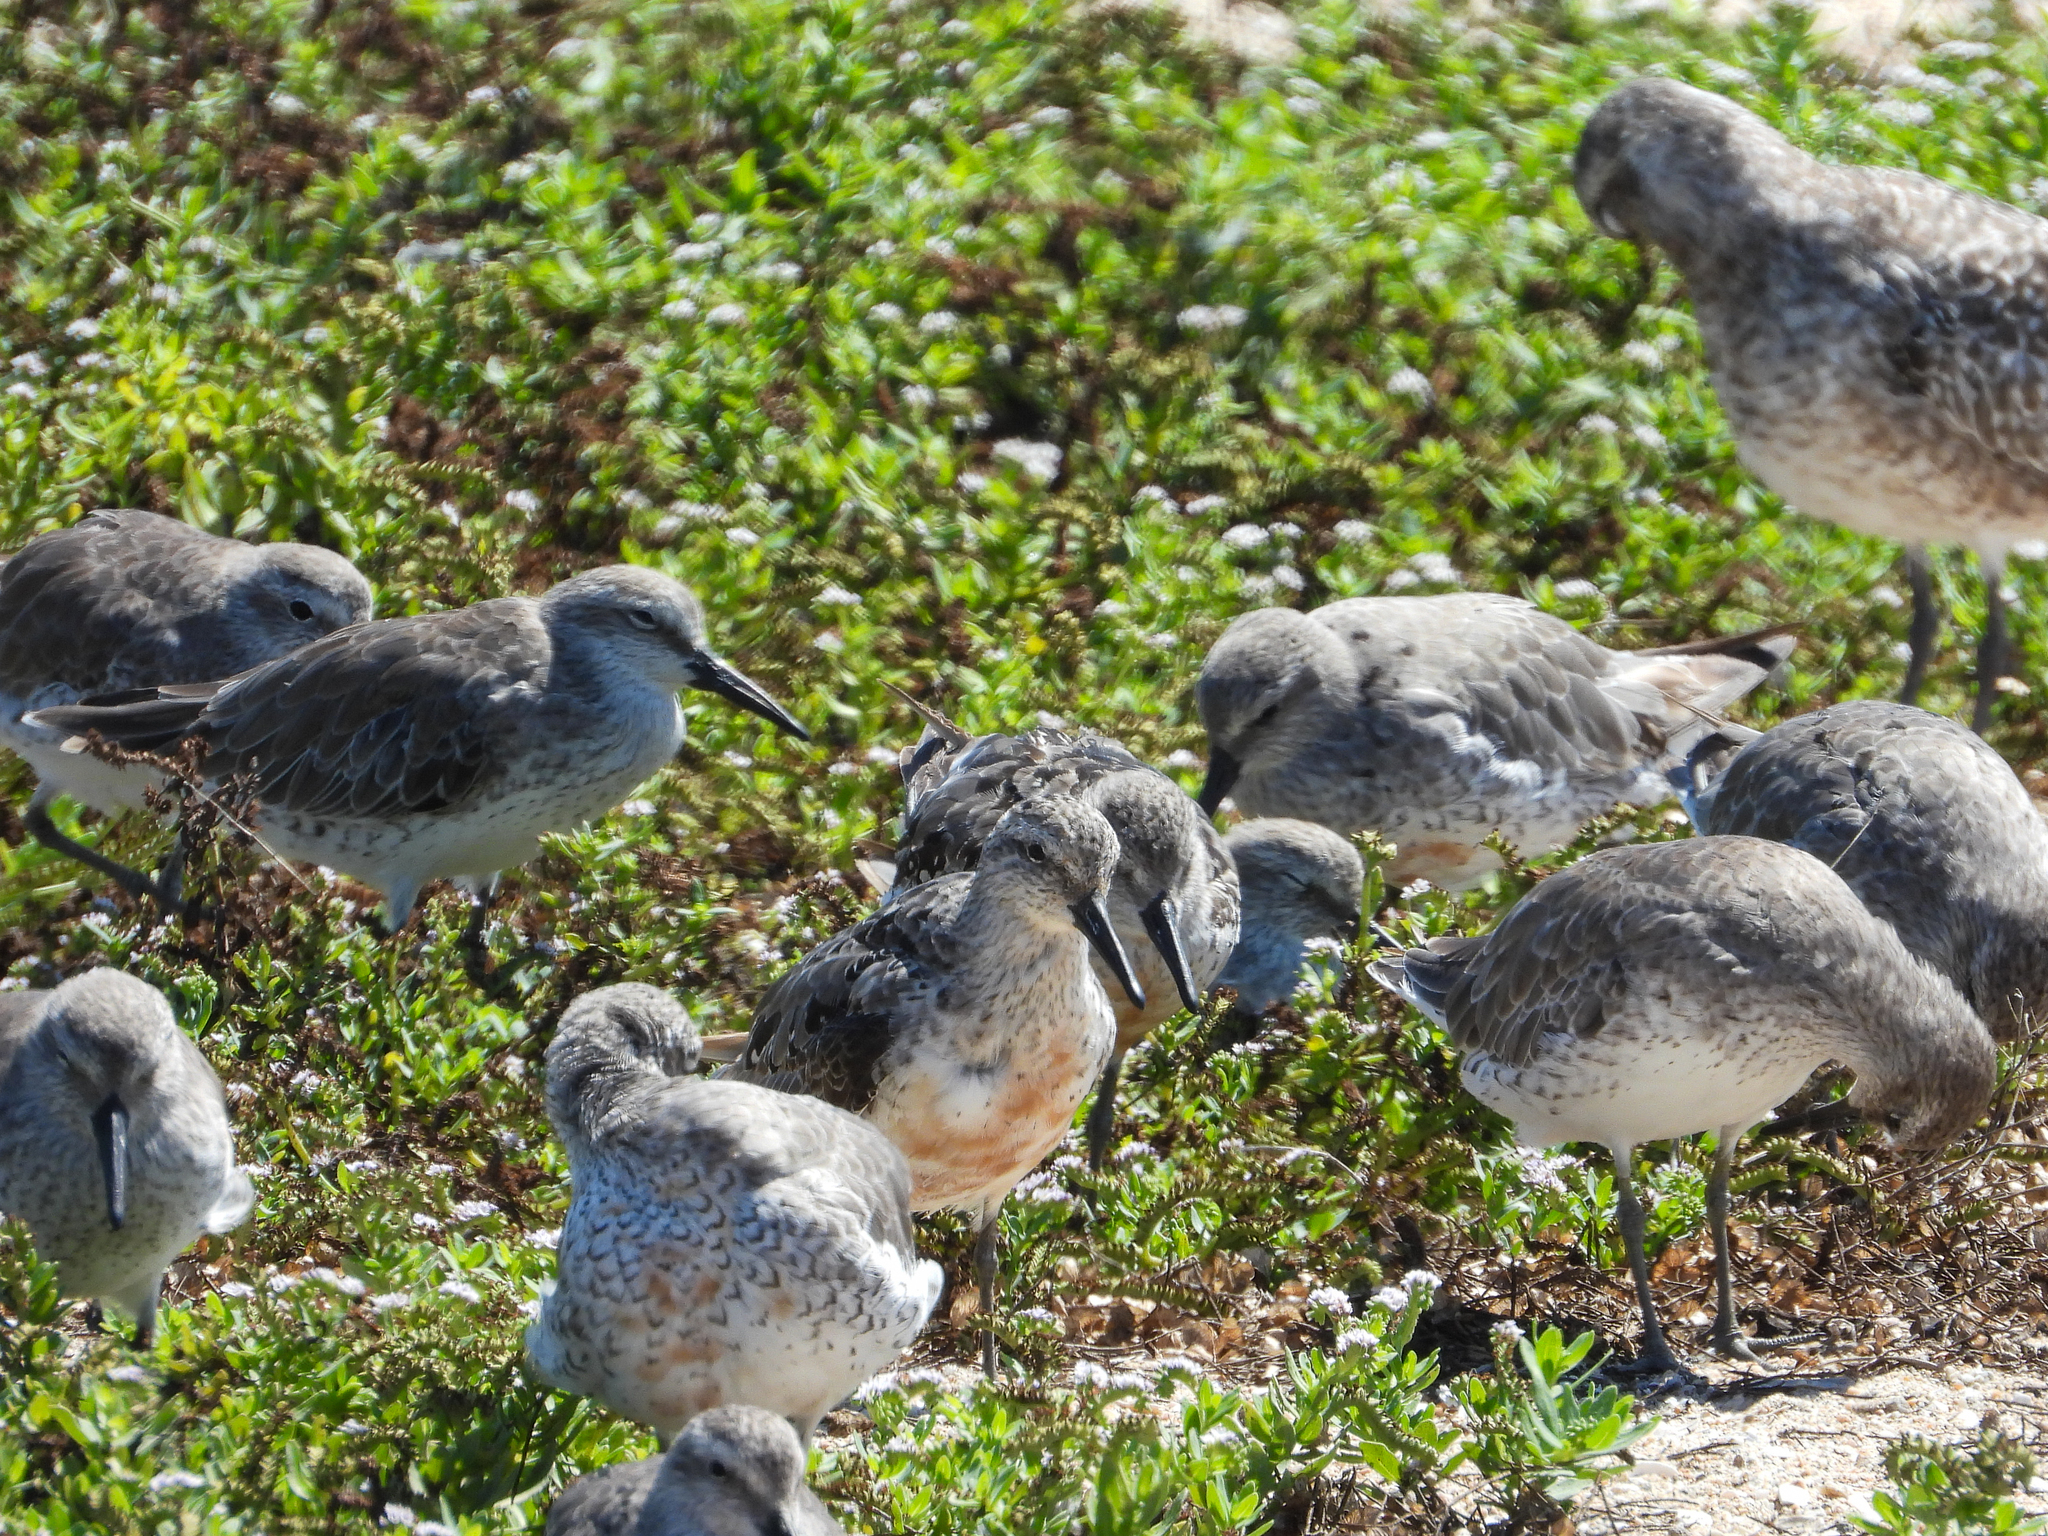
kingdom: Animalia
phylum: Chordata
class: Aves
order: Charadriiformes
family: Scolopacidae
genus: Calidris
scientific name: Calidris canutus
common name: Red knot
